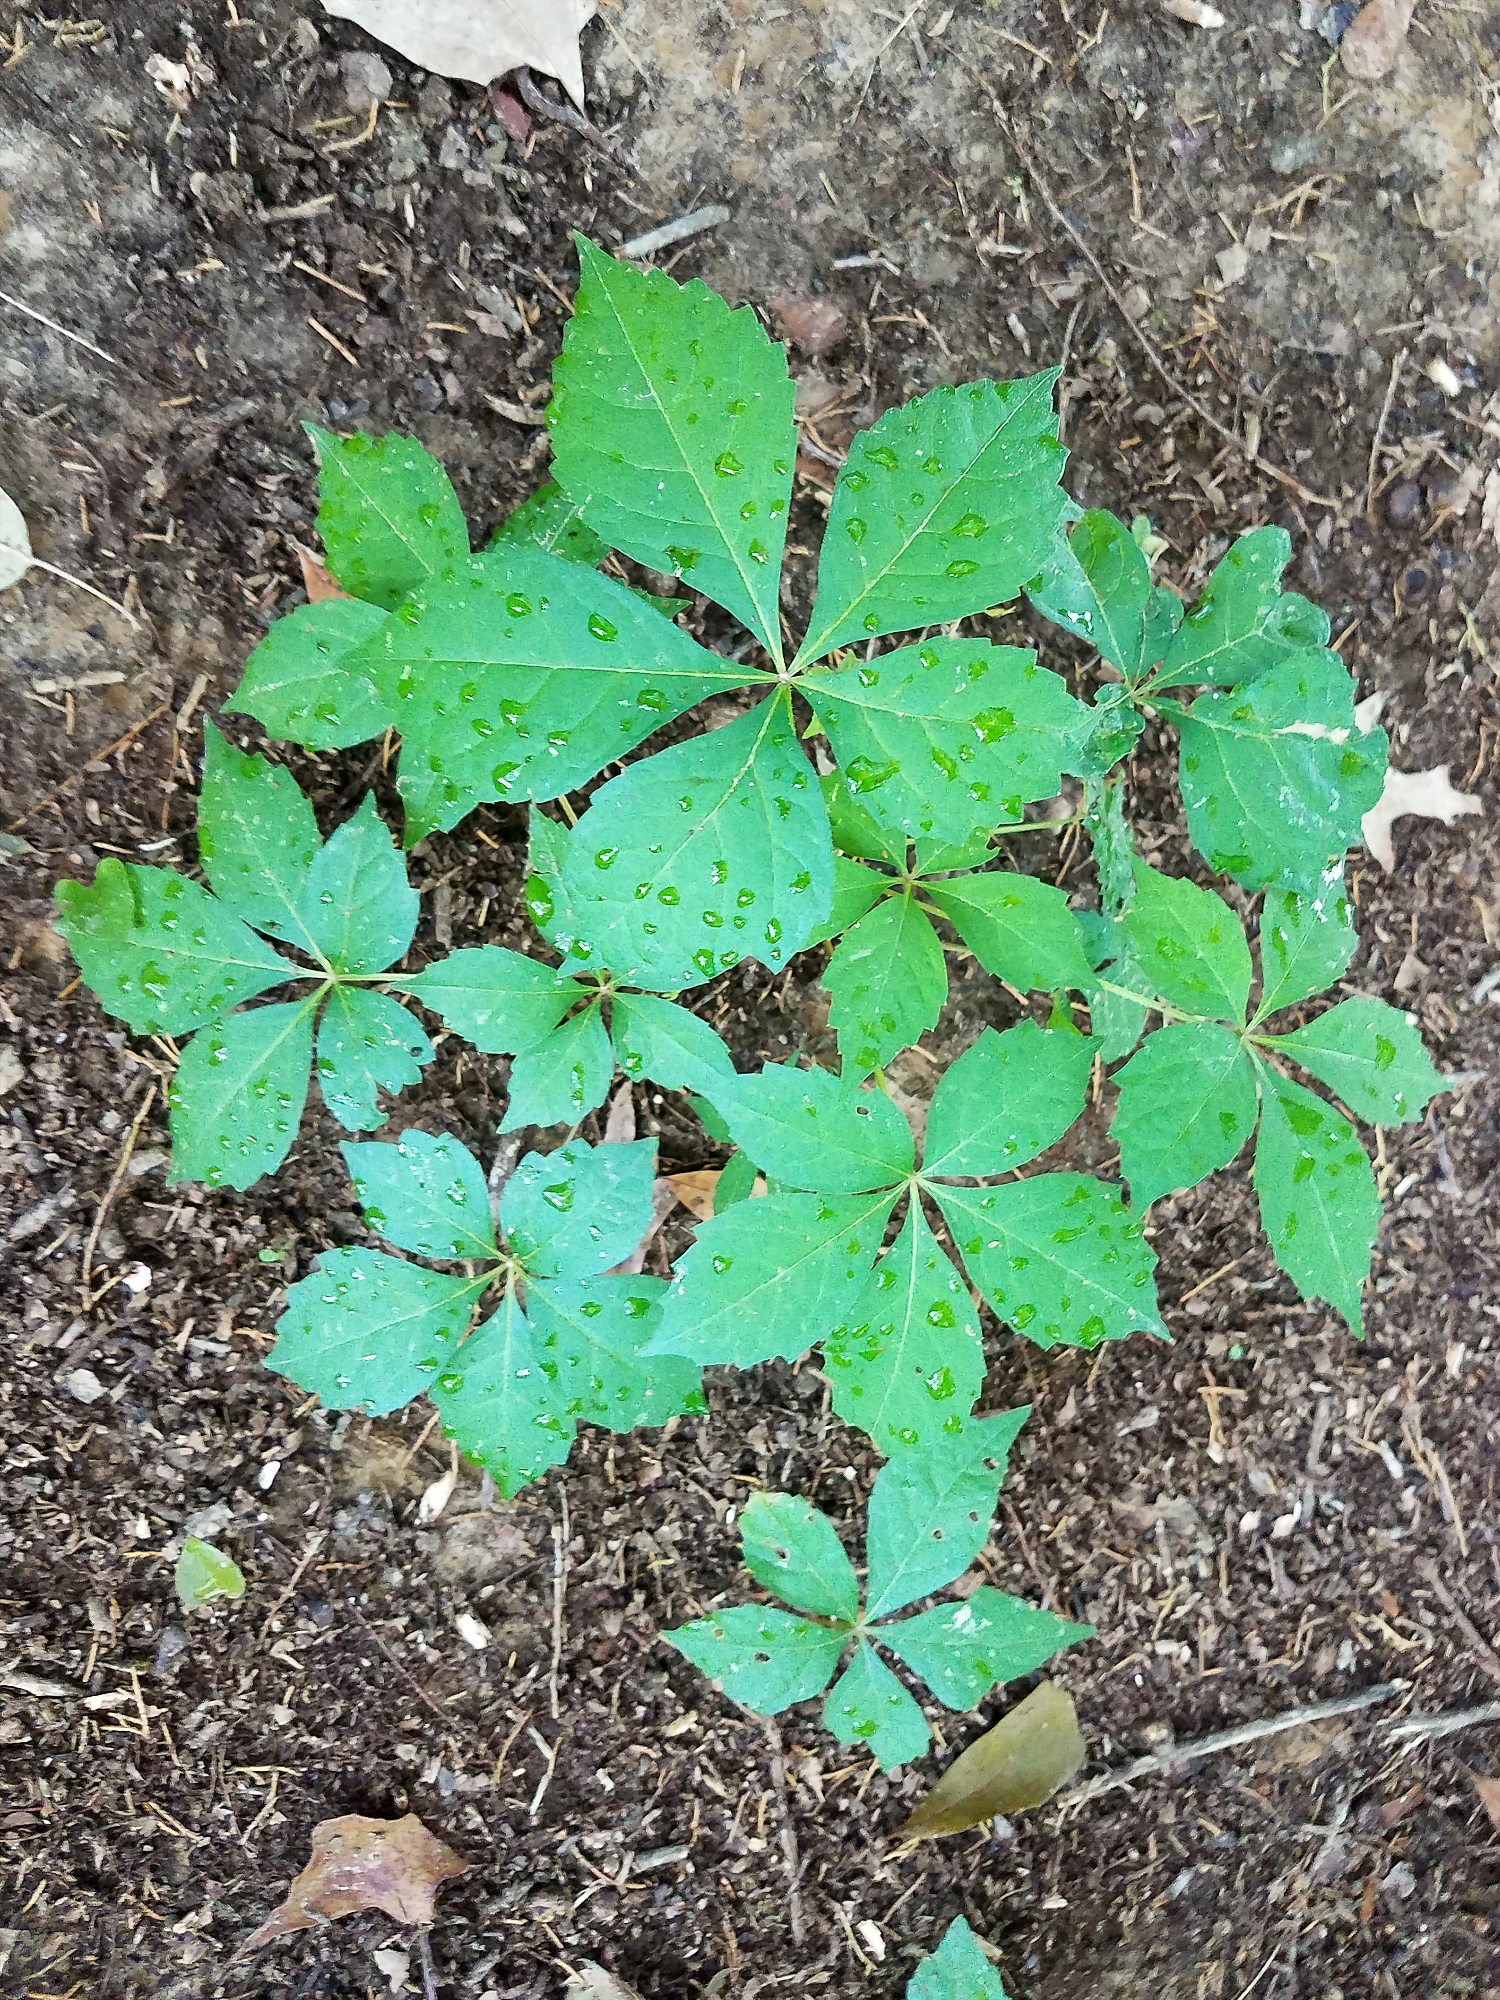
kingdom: Plantae
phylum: Tracheophyta
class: Magnoliopsida
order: Vitales
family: Vitaceae
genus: Parthenocissus
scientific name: Parthenocissus quinquefolia
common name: Virginia-creeper
